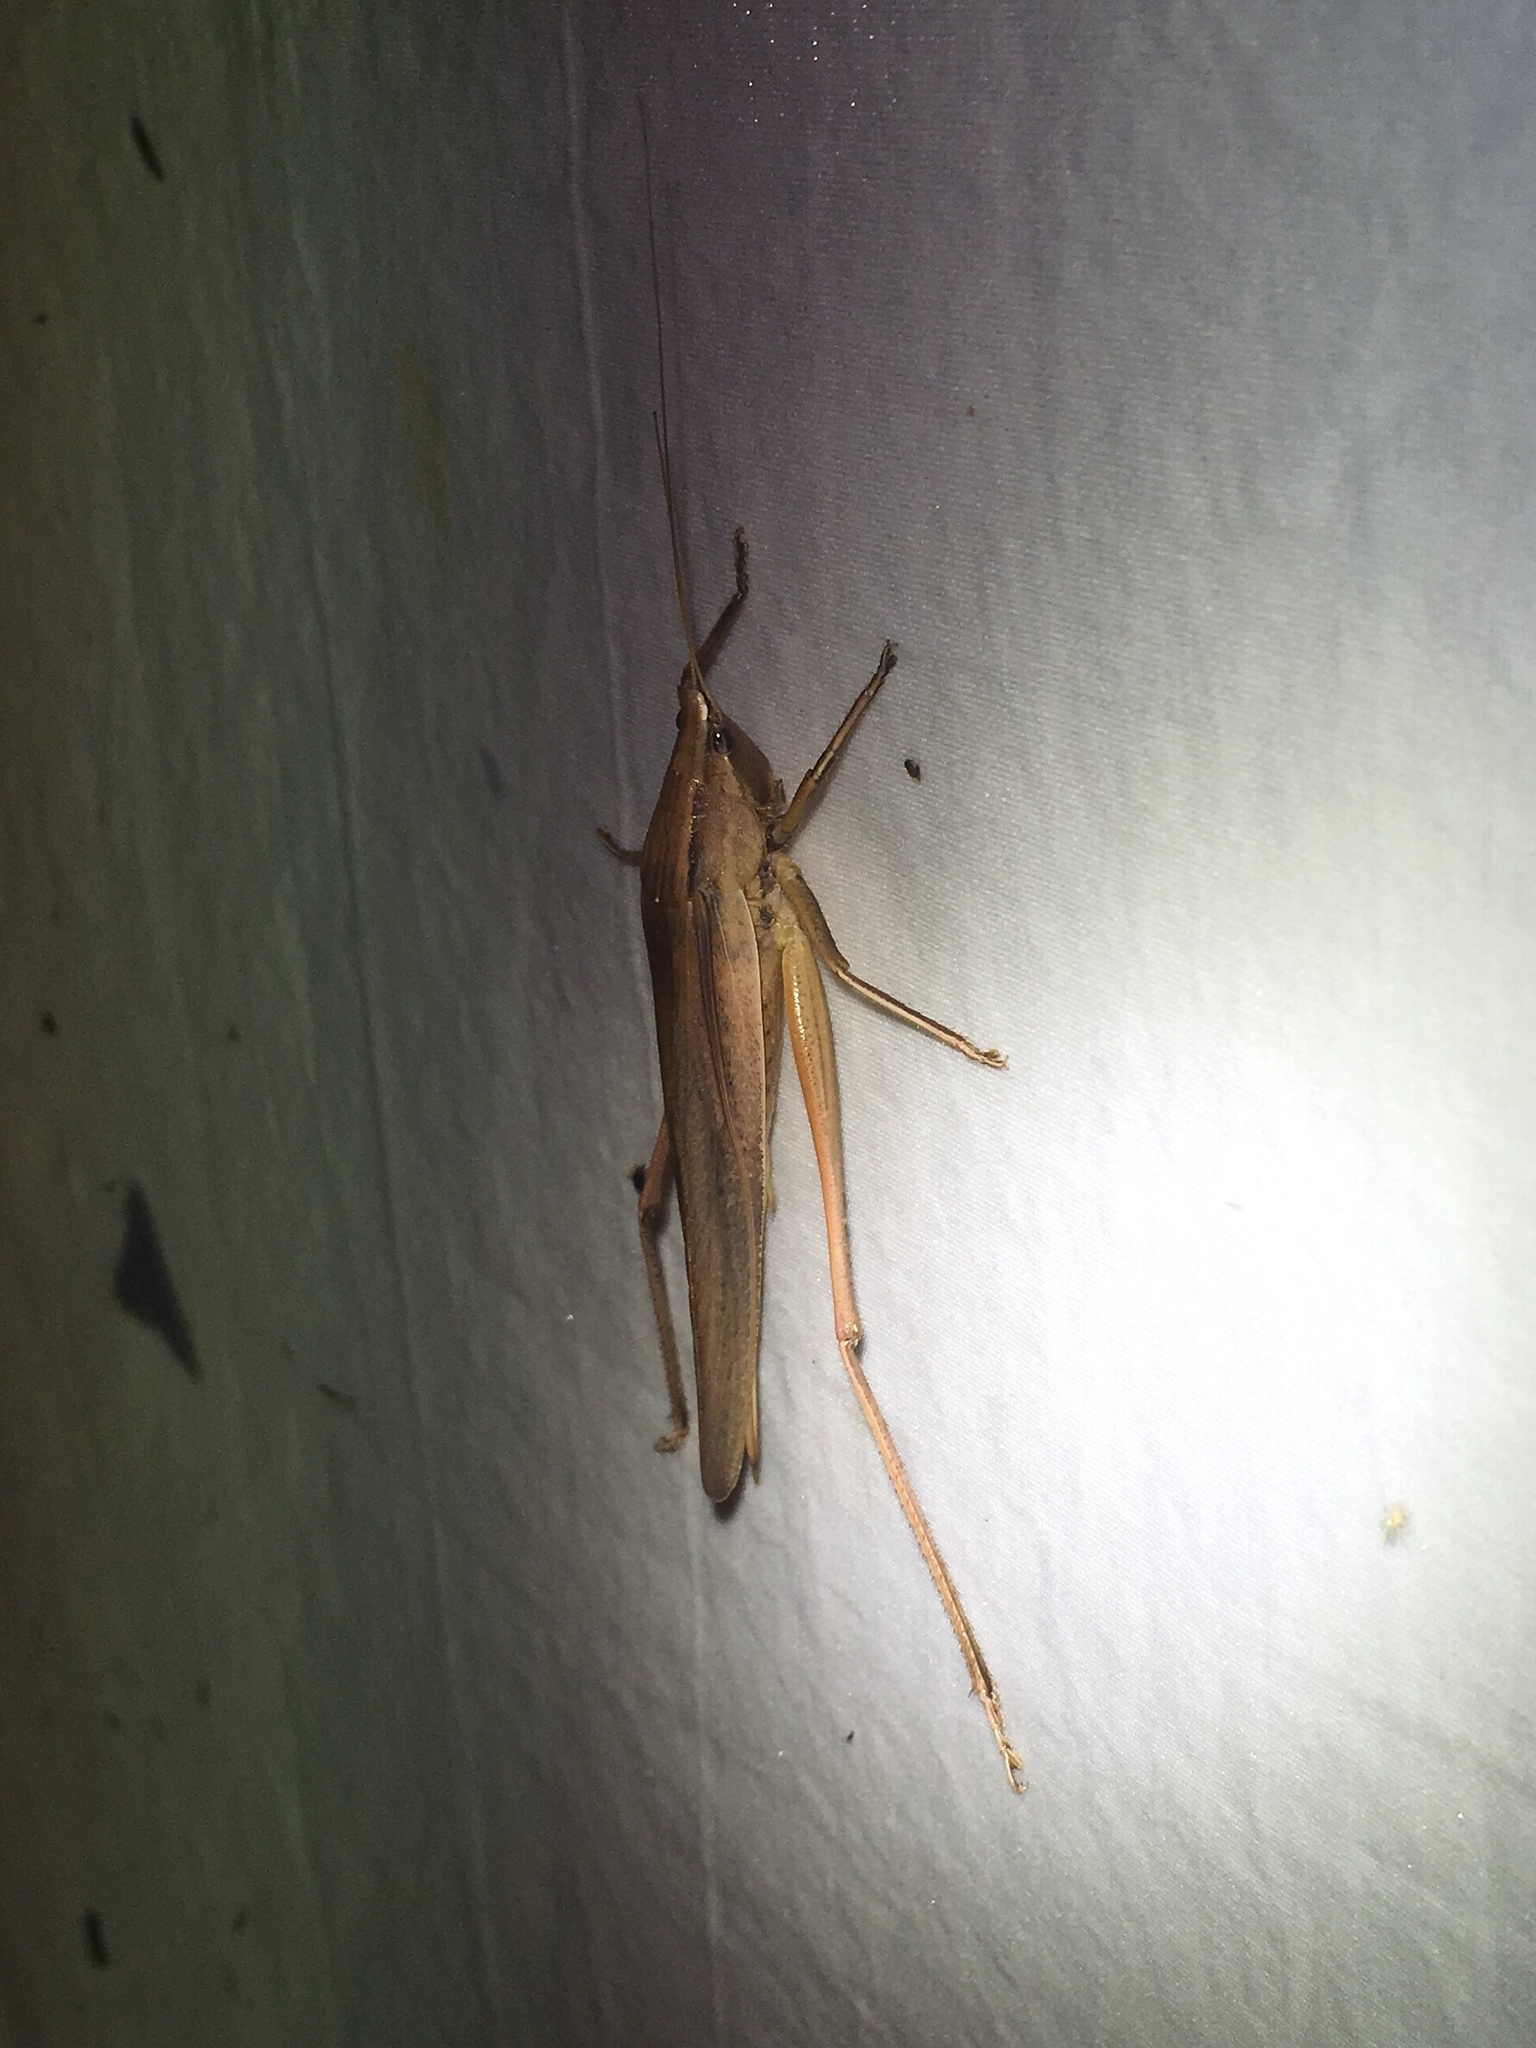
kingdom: Animalia
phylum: Arthropoda
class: Insecta
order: Orthoptera
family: Tettigoniidae
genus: Neoconocephalus
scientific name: Neoconocephalus triops
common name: Broad-tipped conehead
